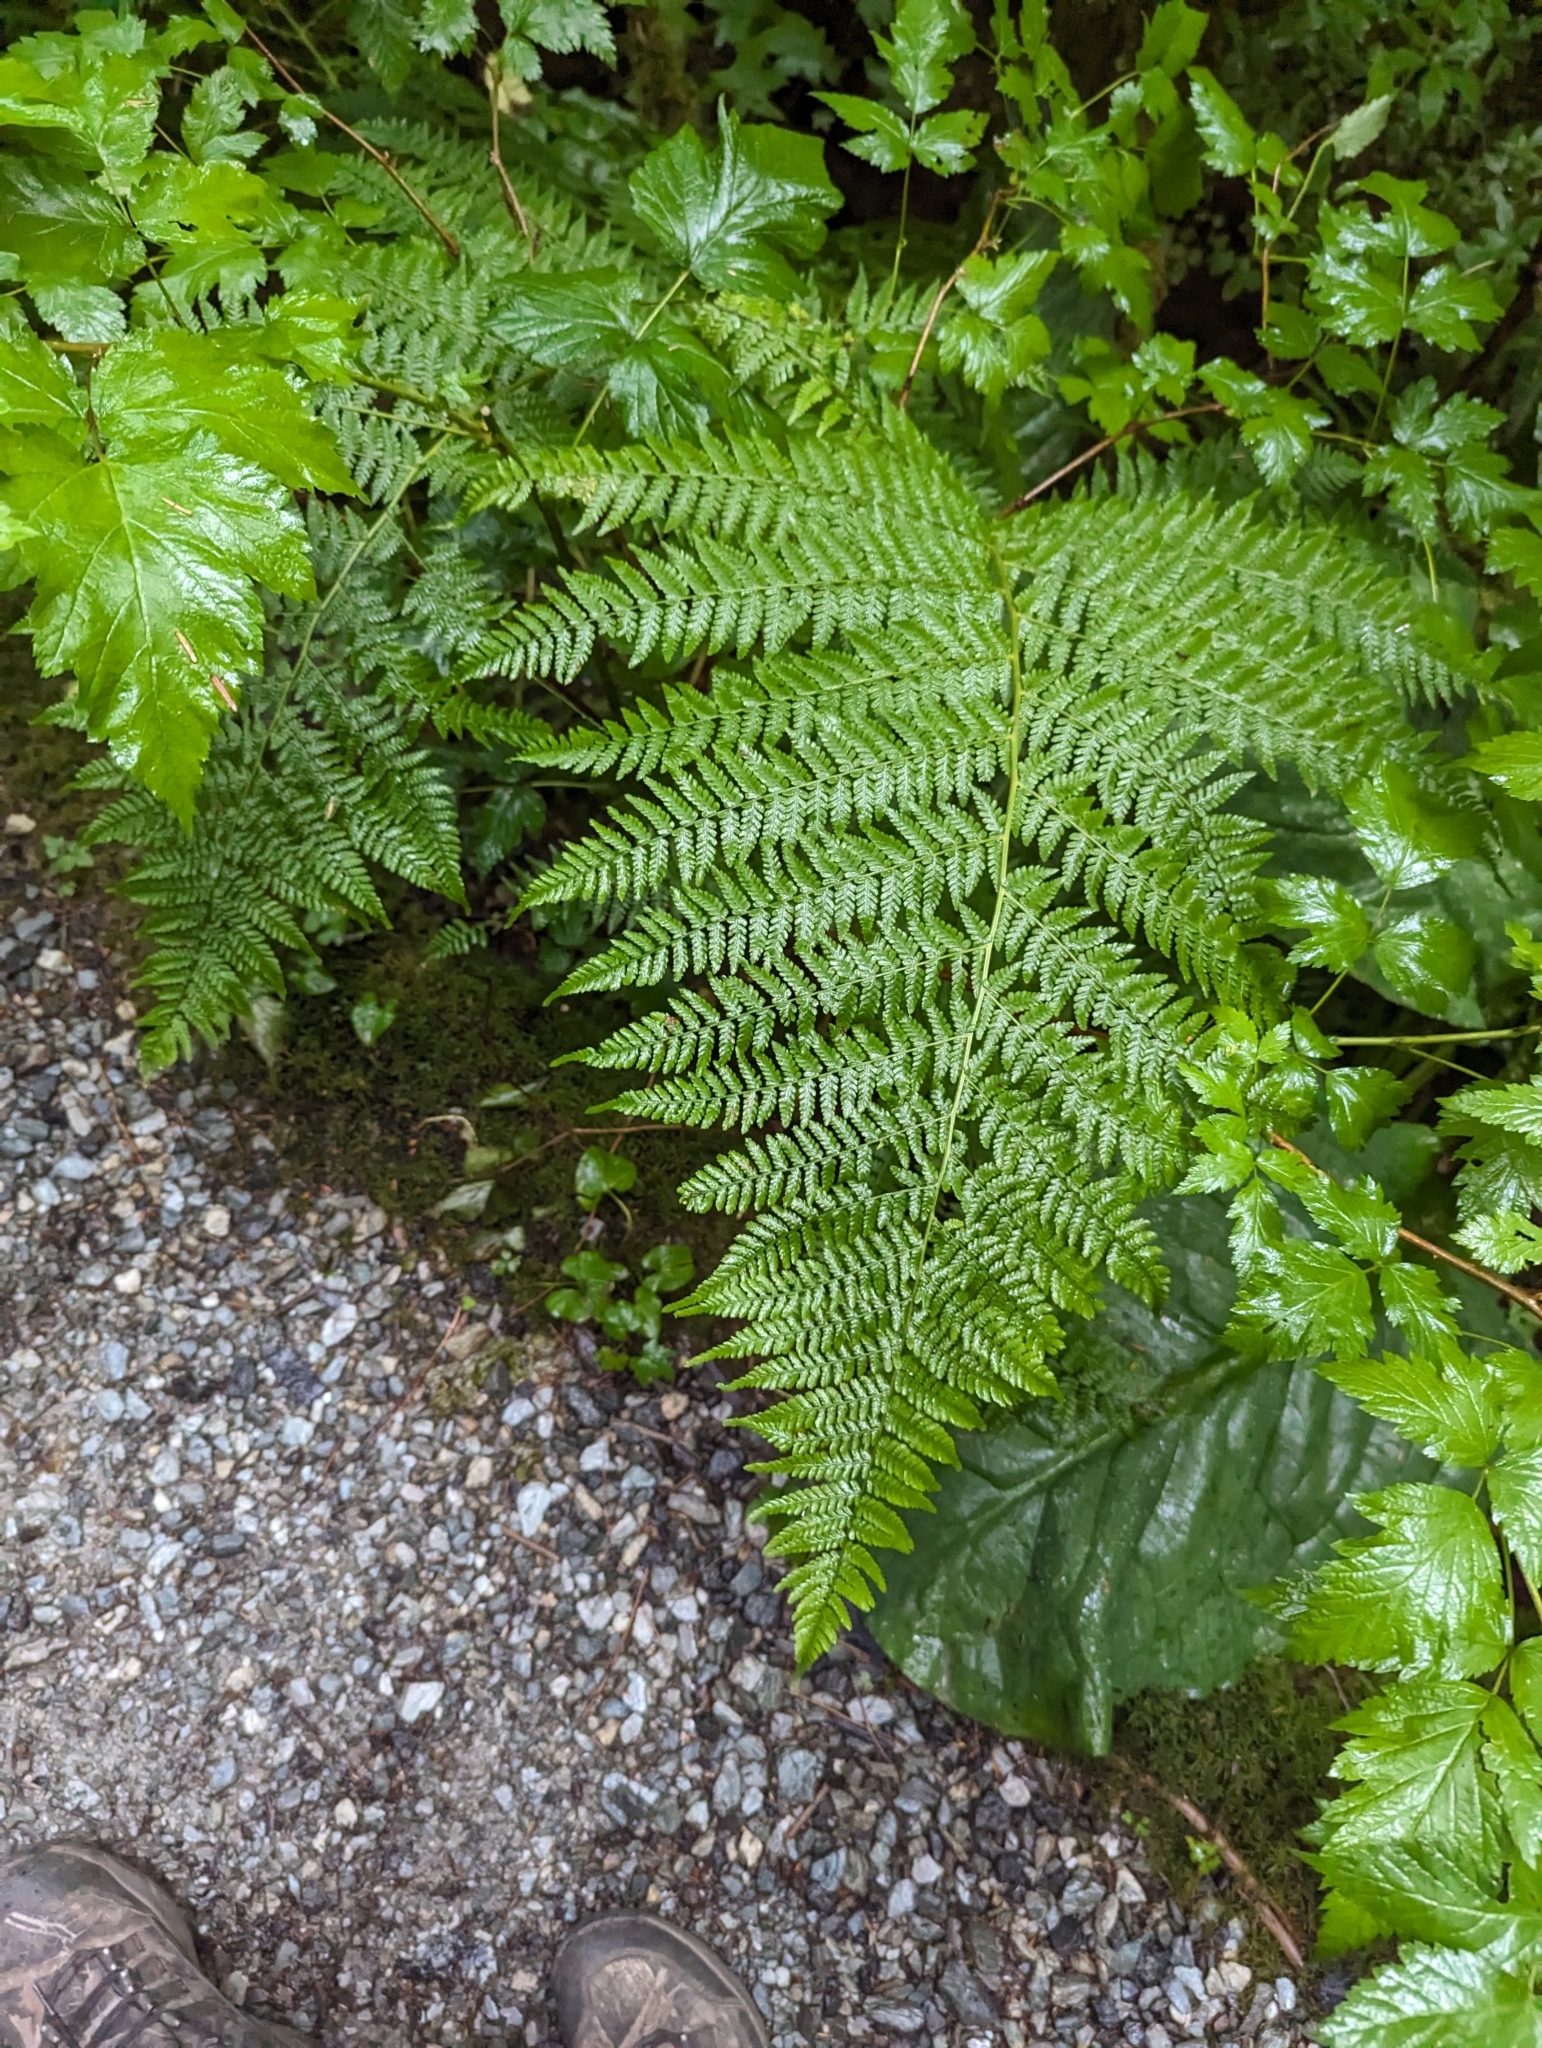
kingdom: Plantae
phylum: Tracheophyta
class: Polypodiopsida
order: Polypodiales
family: Athyriaceae
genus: Athyrium
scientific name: Athyrium filix-femina
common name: Lady fern
